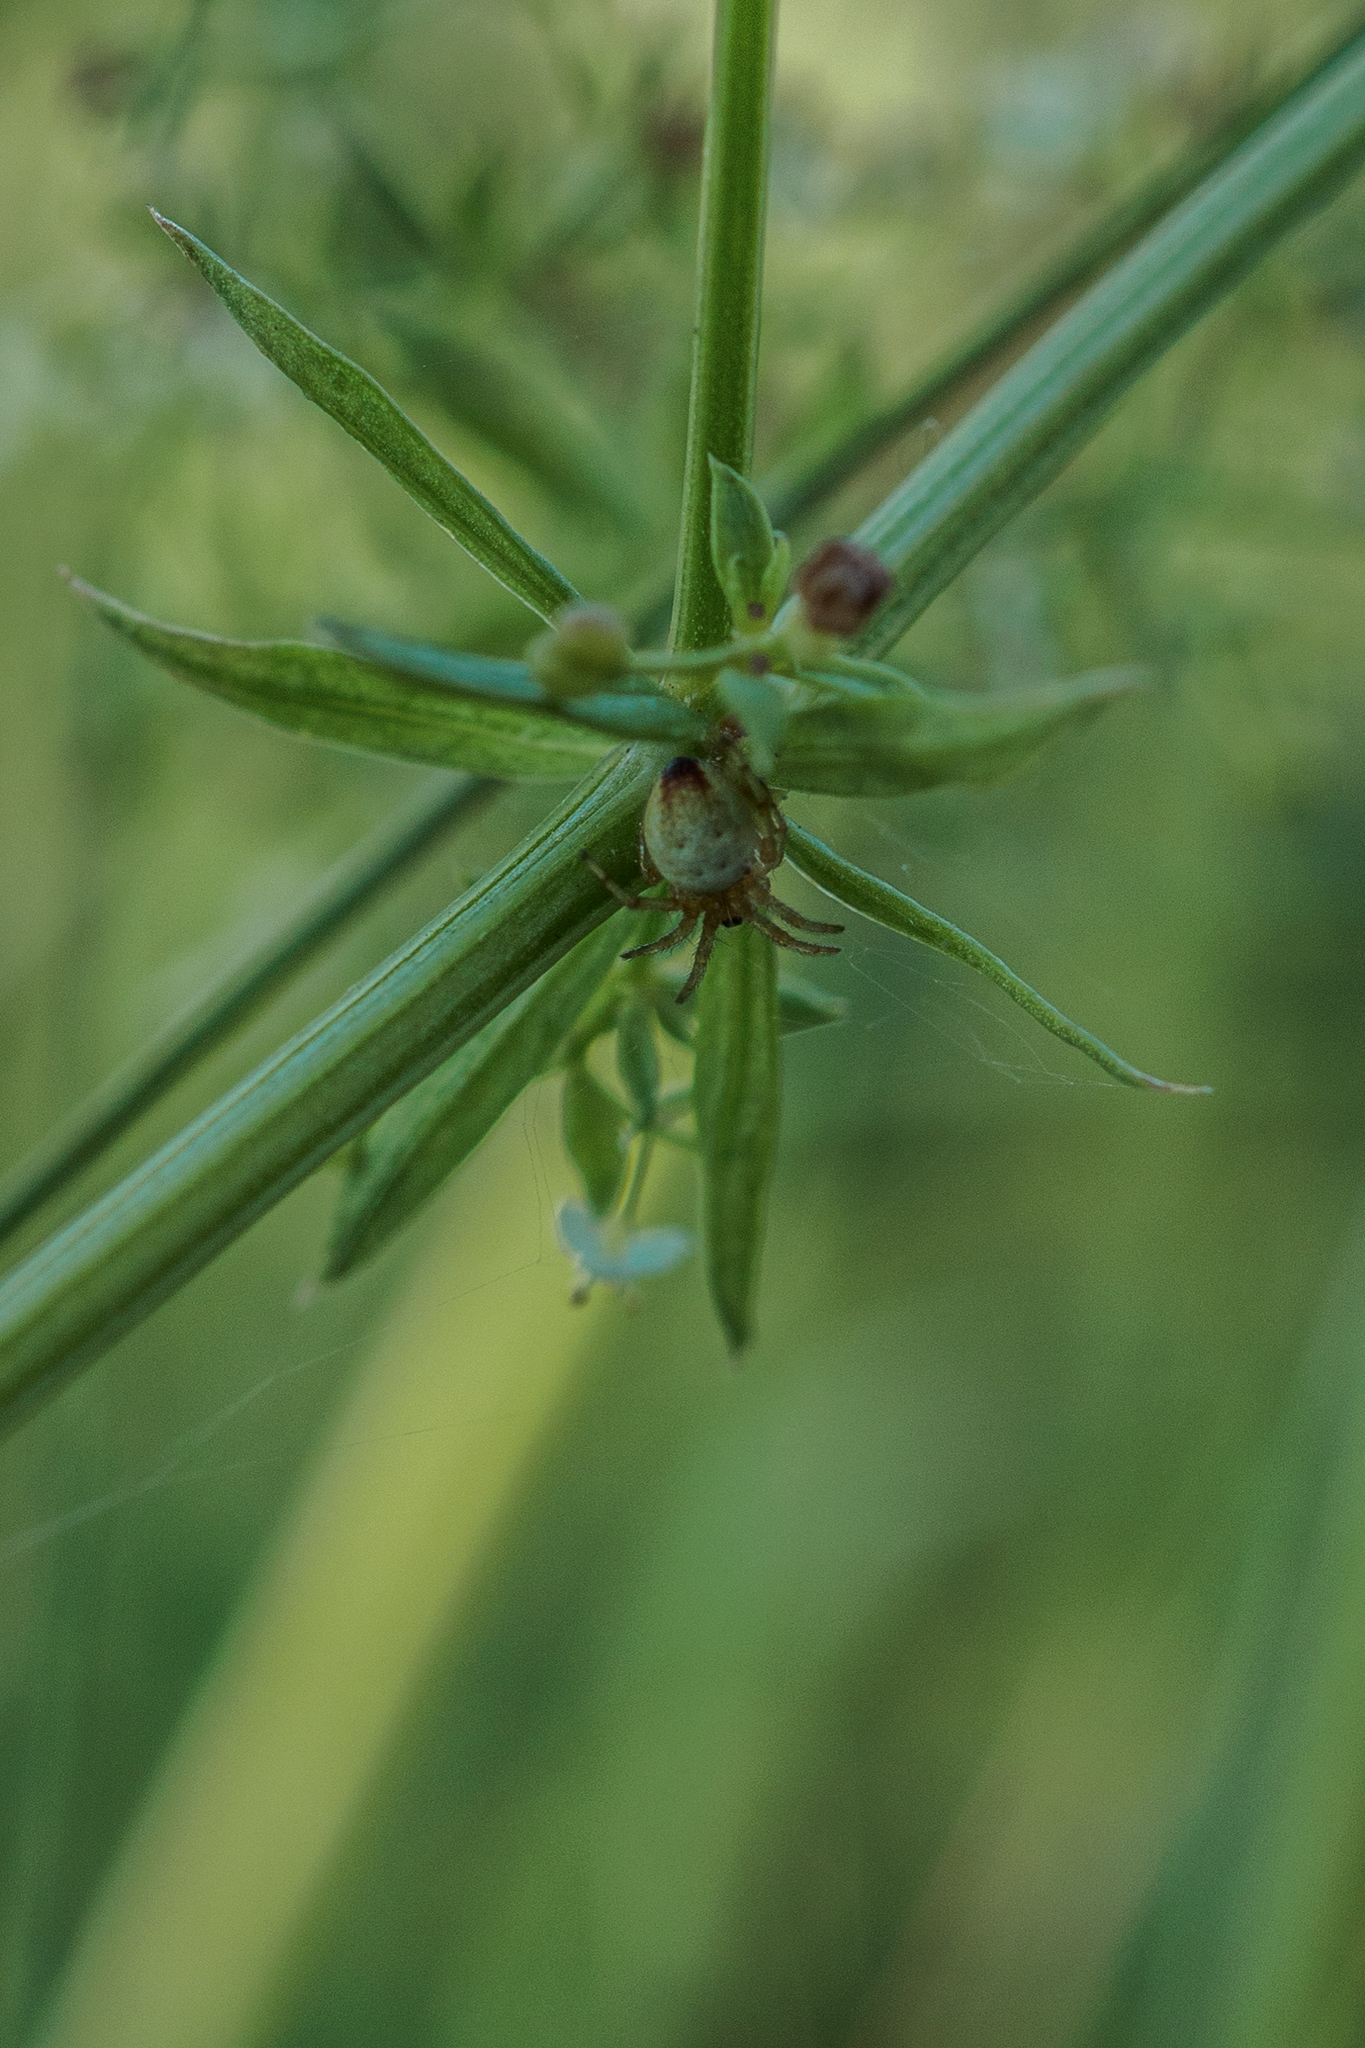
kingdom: Animalia
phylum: Arthropoda
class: Arachnida
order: Araneae
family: Araneidae
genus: Araniella
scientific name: Araniella displicata
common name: Sixspotted orb weaver
